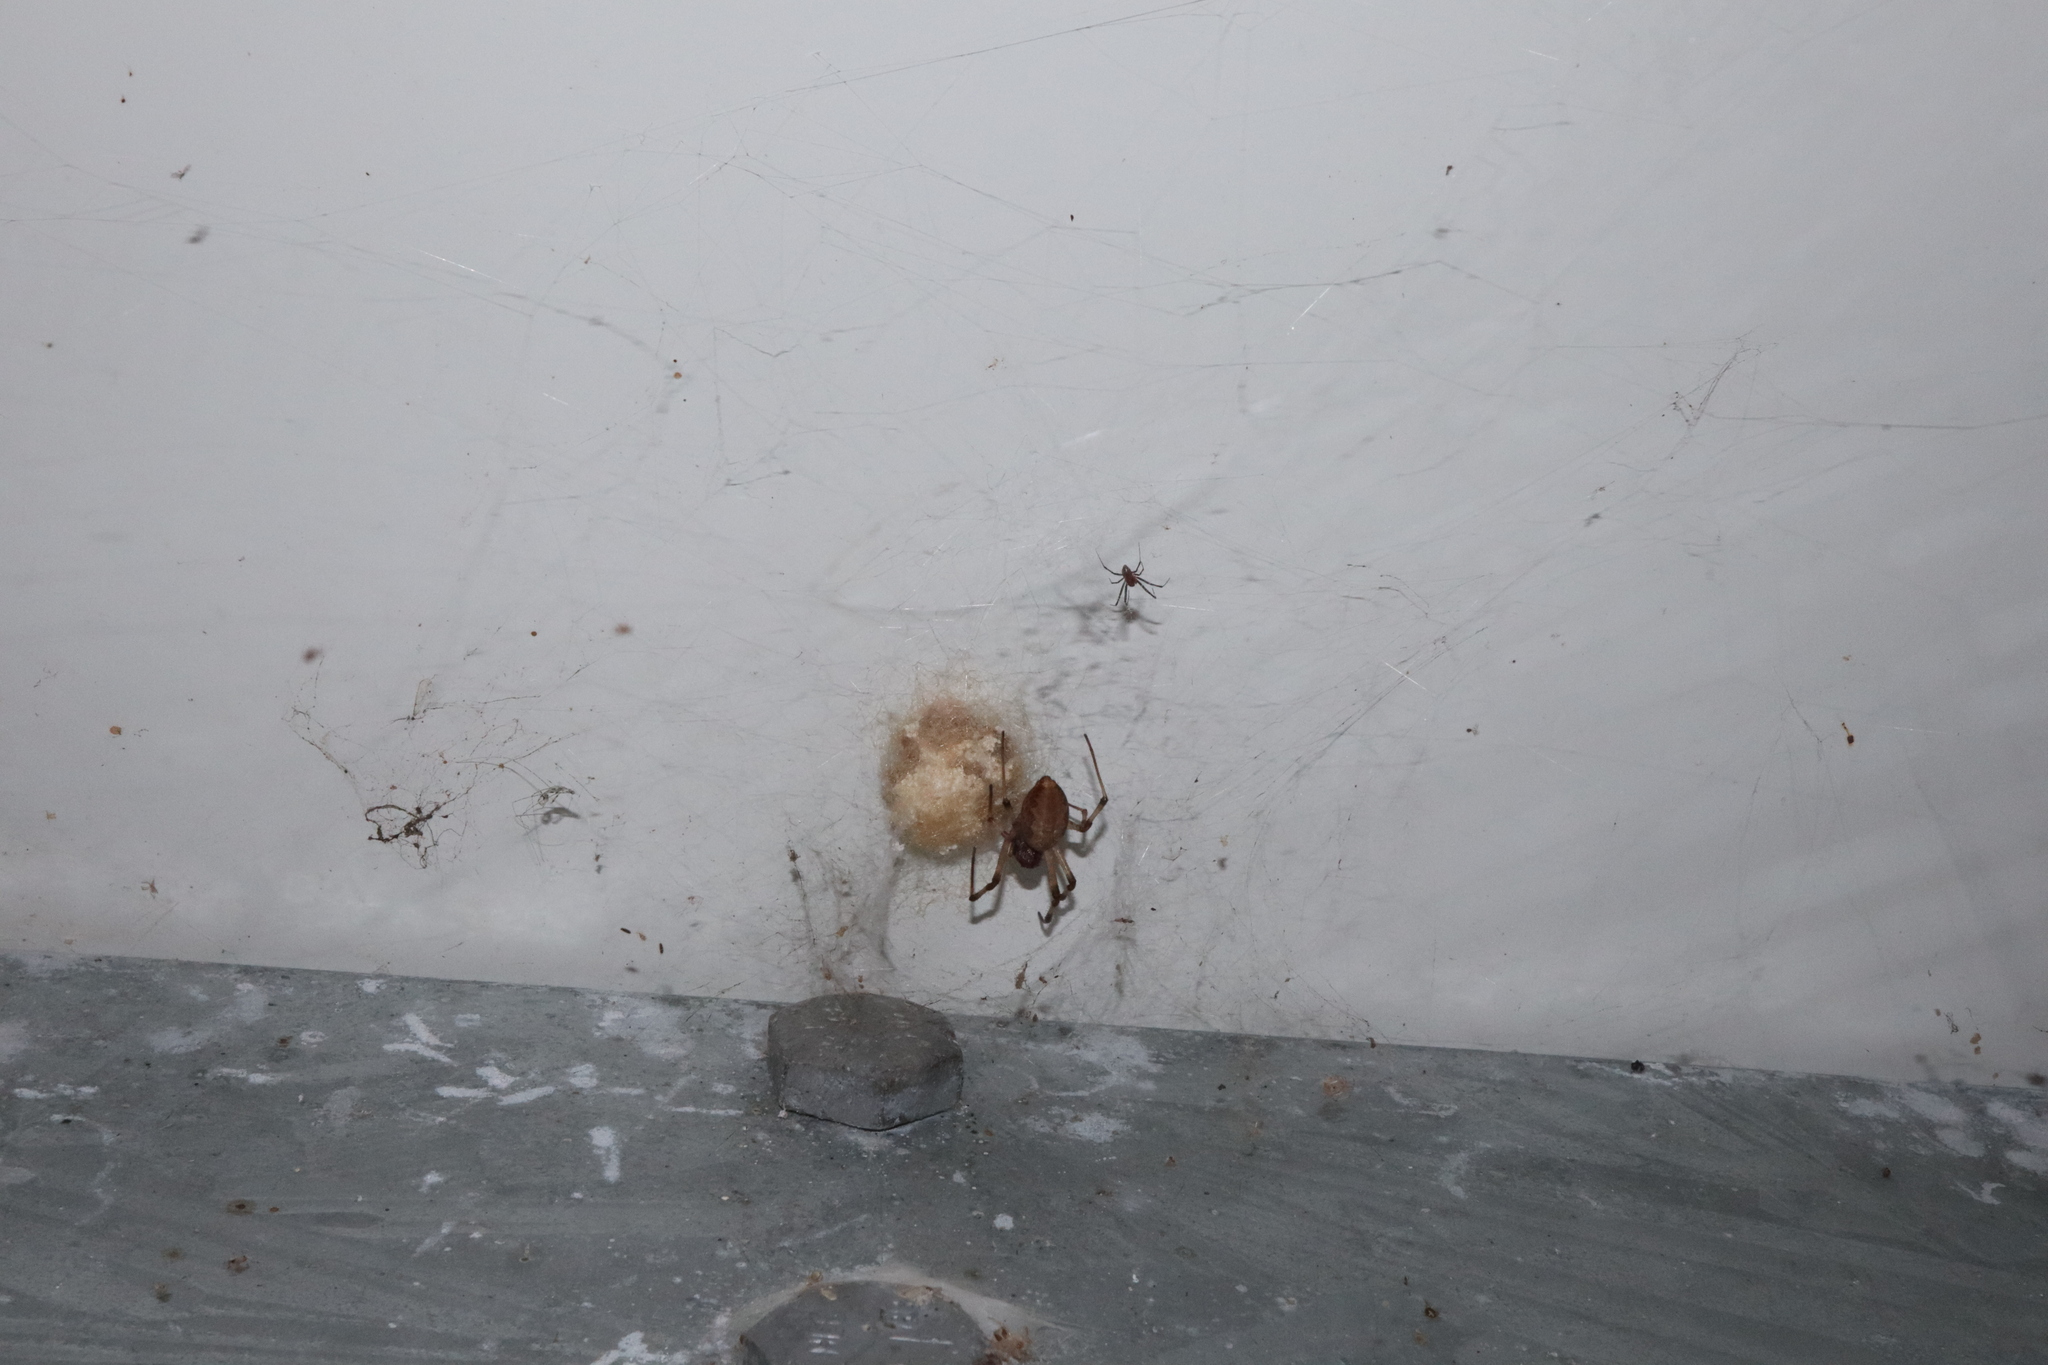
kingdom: Animalia
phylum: Arthropoda
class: Arachnida
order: Araneae
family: Araneidae
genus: Nephilengys
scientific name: Nephilengys papuana
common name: Papuan hermit spider
